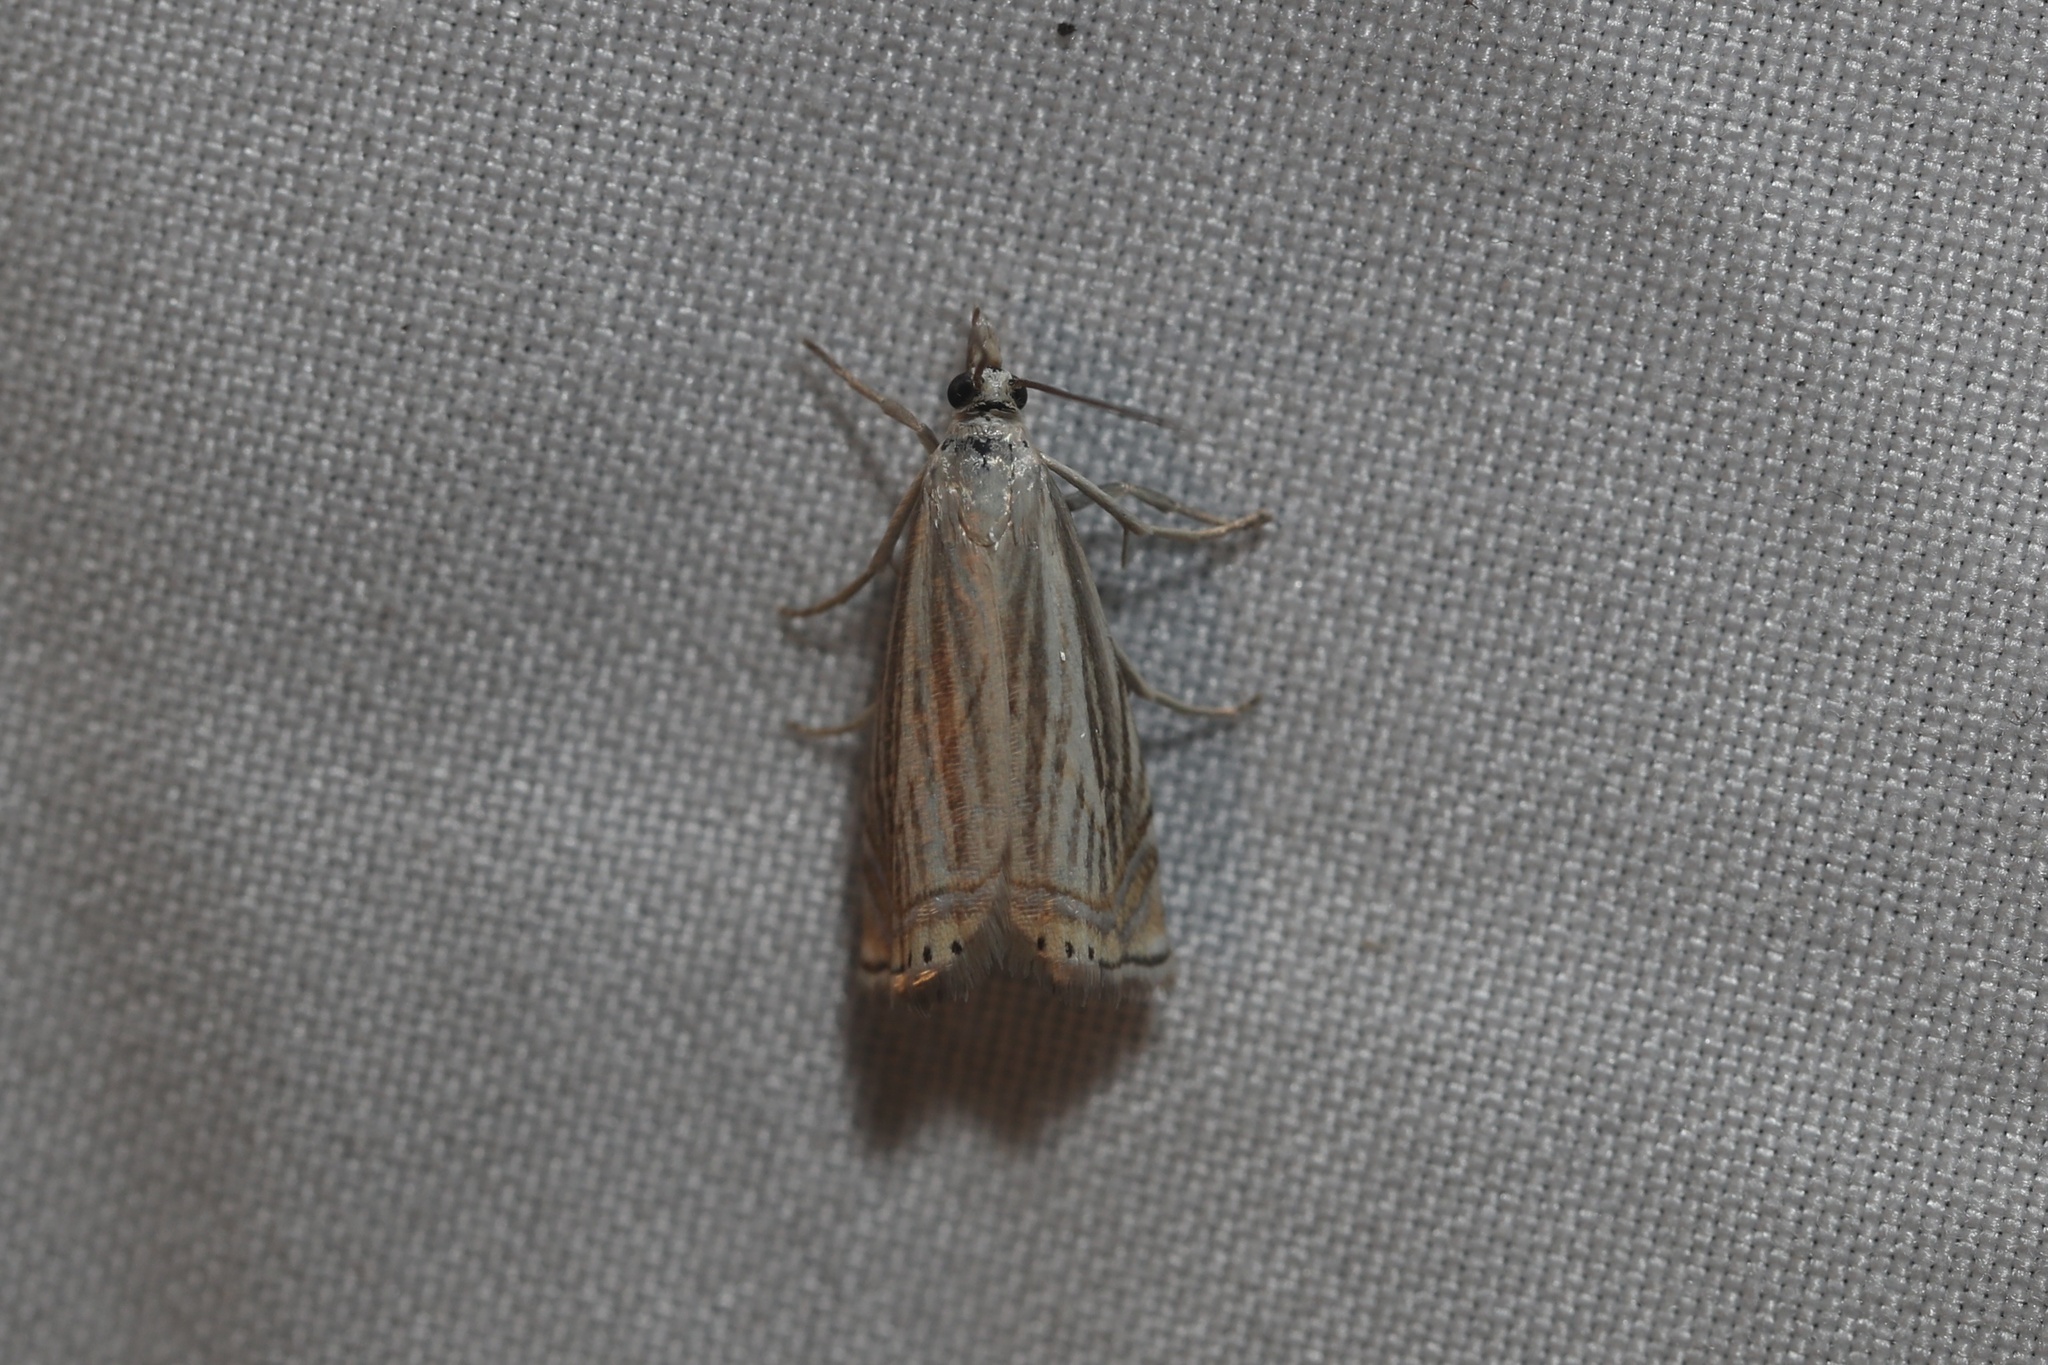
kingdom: Animalia
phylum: Arthropoda
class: Insecta
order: Lepidoptera
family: Crambidae
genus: Chrysoteuchia
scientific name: Chrysoteuchia topiarius
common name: Topiary grass-veneer
